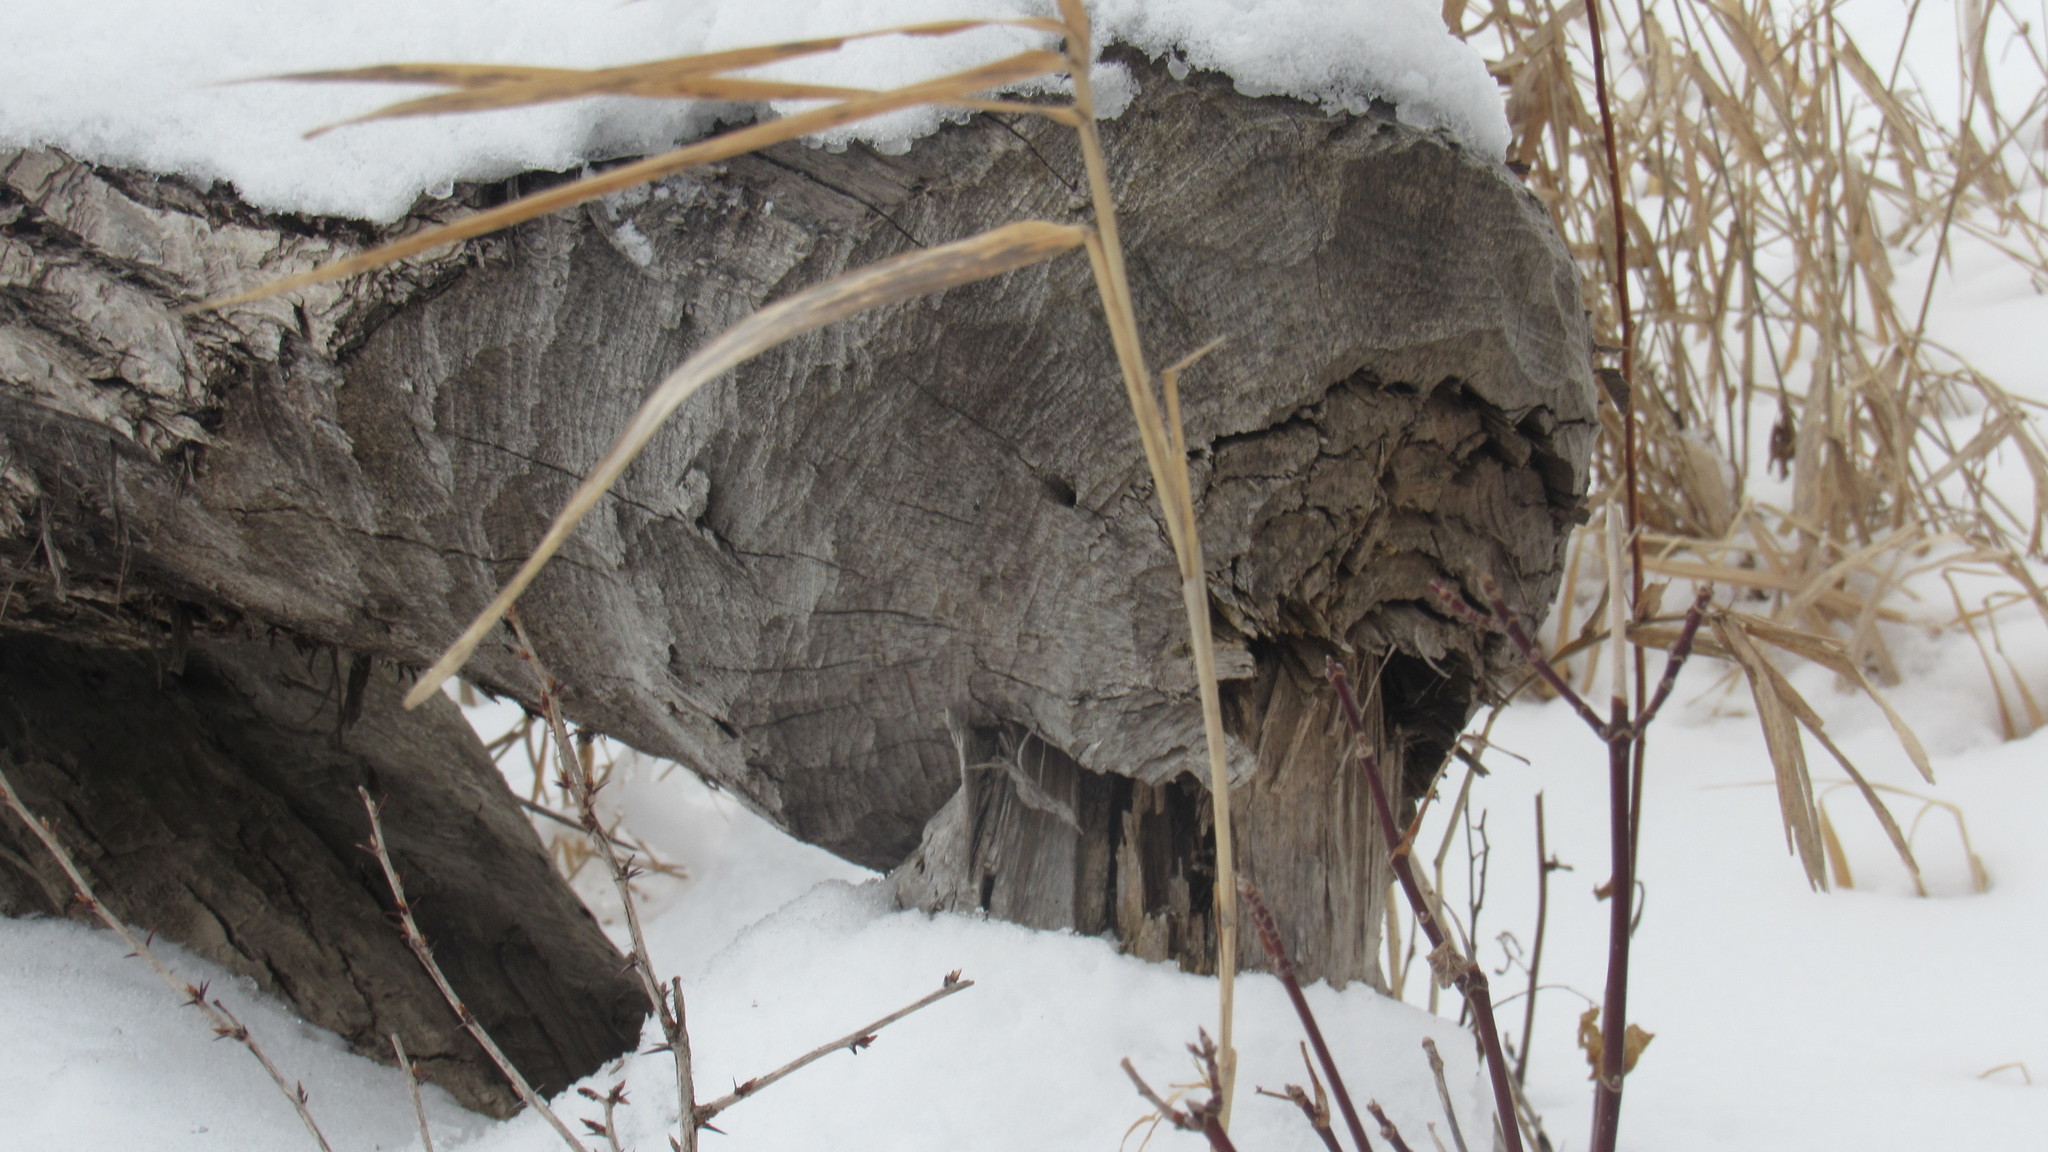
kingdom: Animalia
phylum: Chordata
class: Mammalia
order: Rodentia
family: Castoridae
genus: Castor
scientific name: Castor canadensis
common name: American beaver
